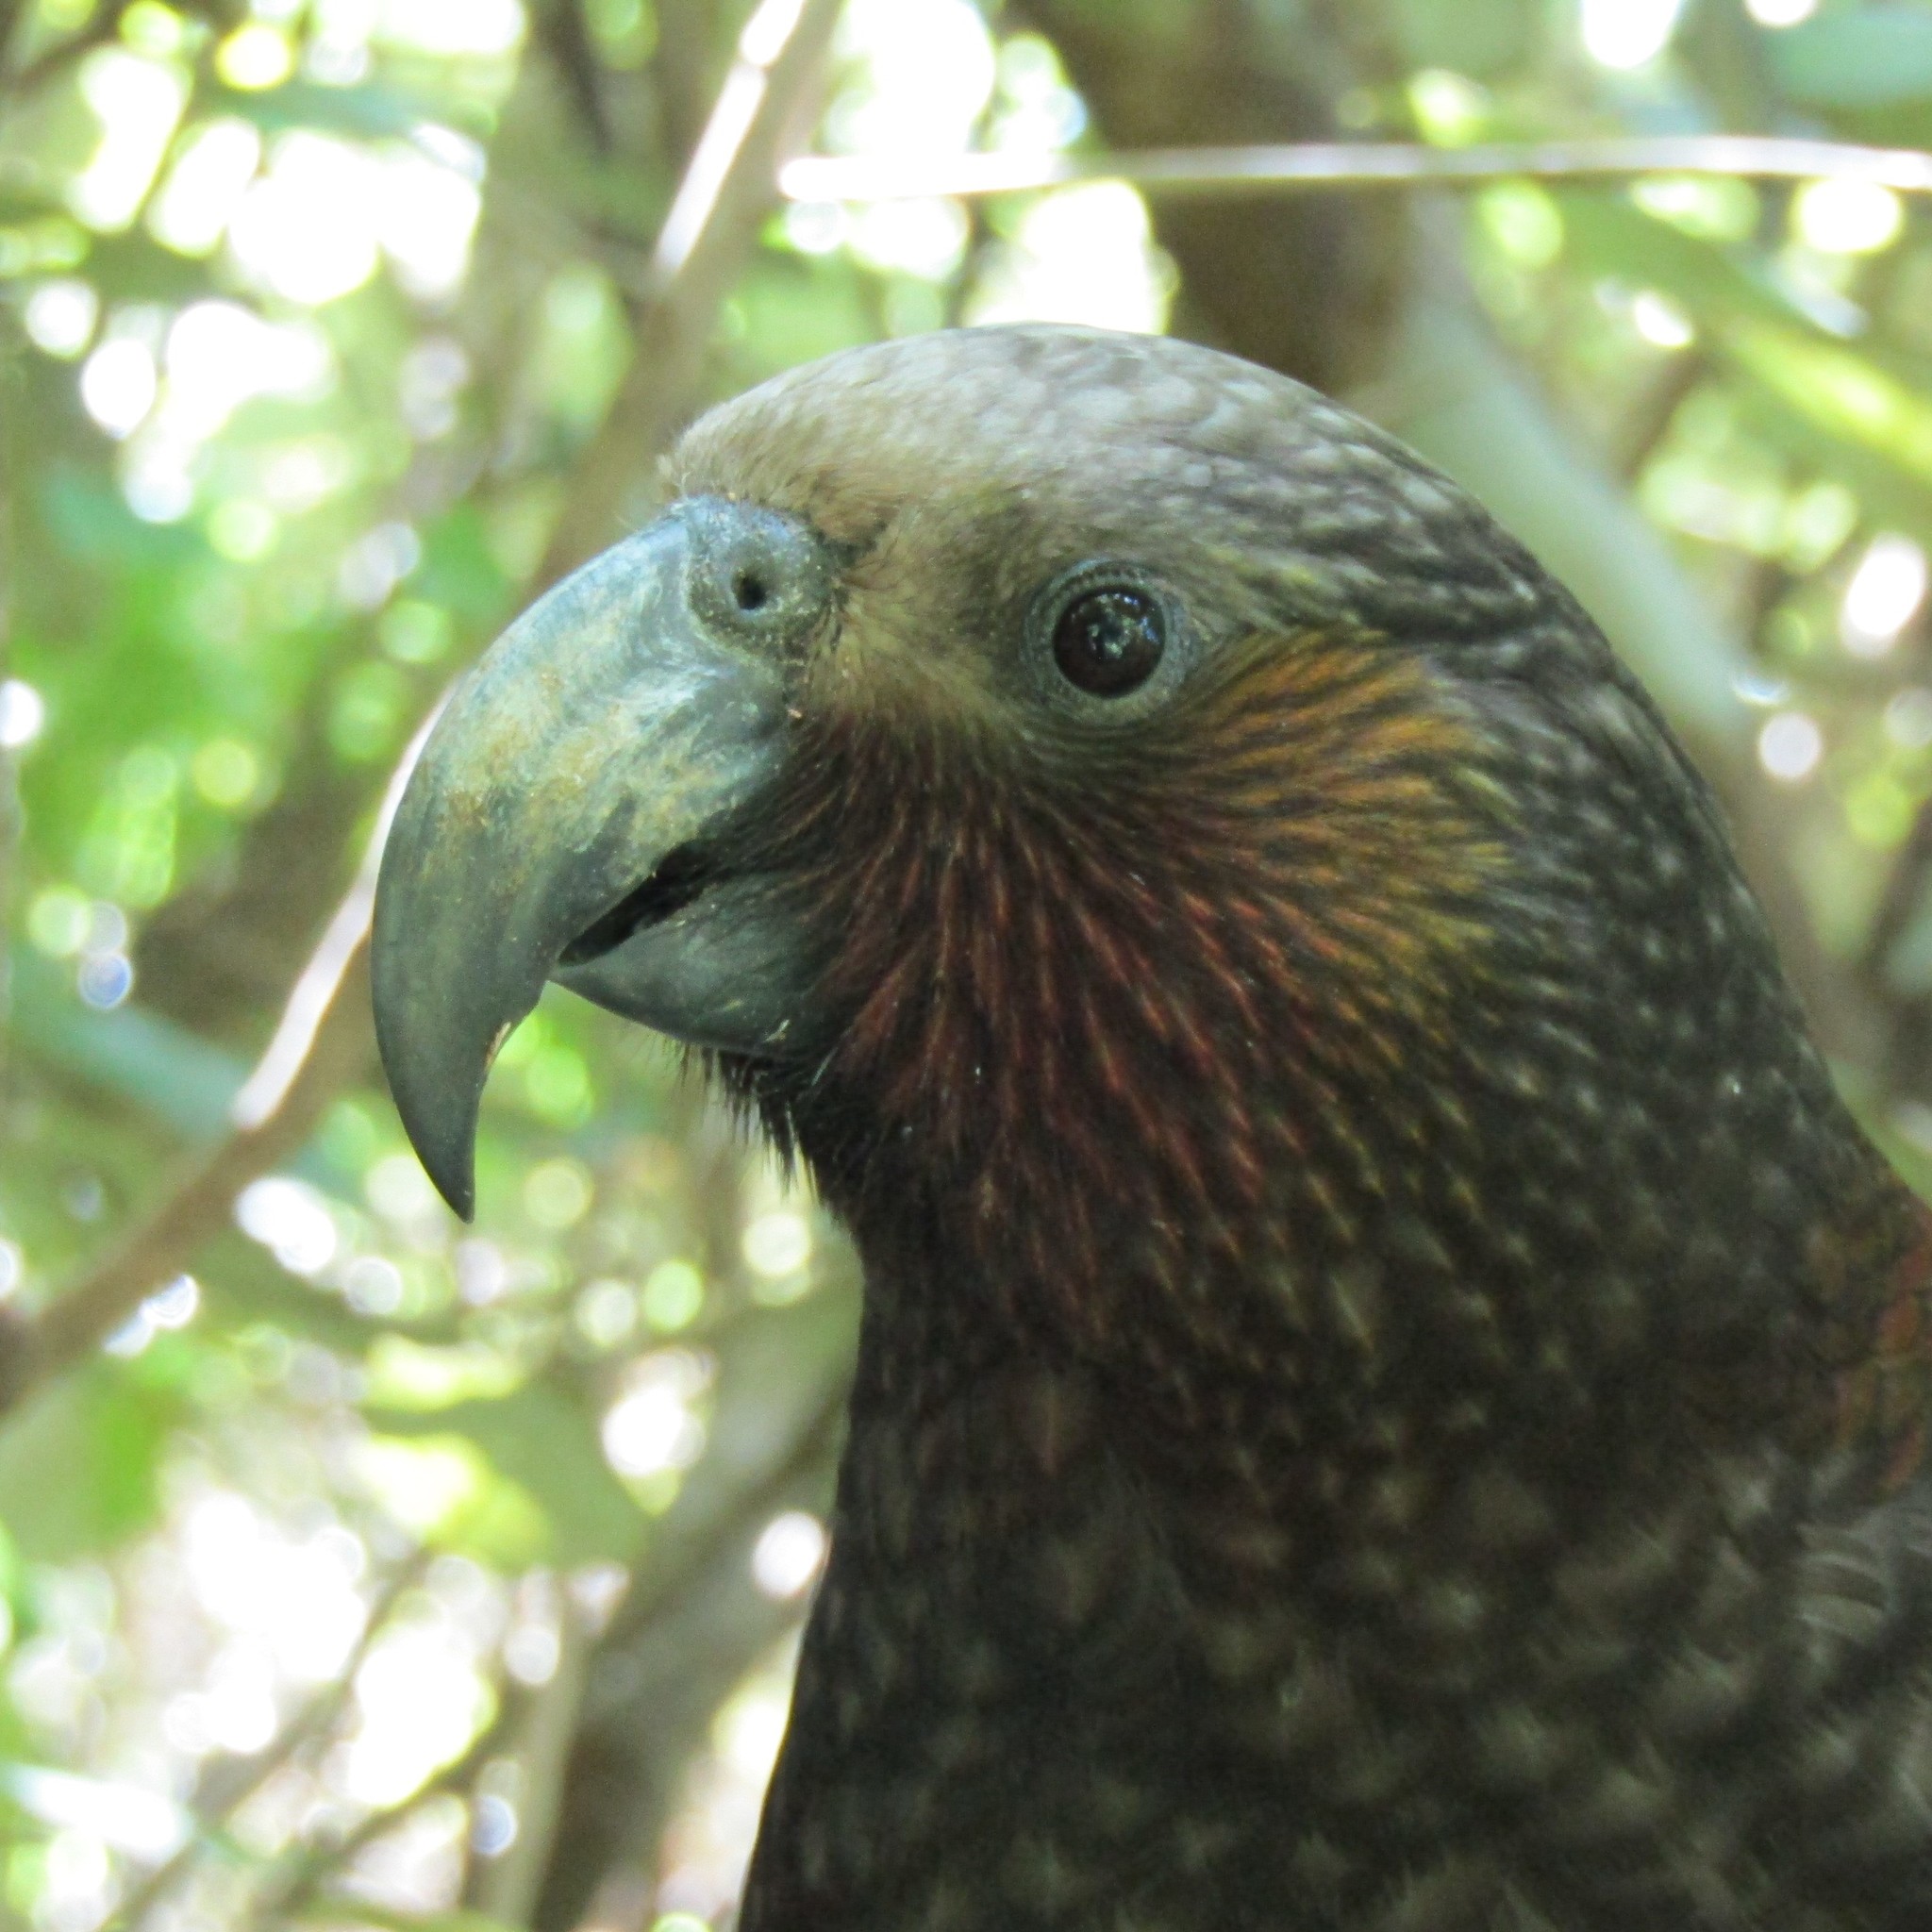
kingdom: Animalia
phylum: Chordata
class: Aves
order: Psittaciformes
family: Psittacidae
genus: Nestor
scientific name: Nestor meridionalis
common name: New zealand kaka
